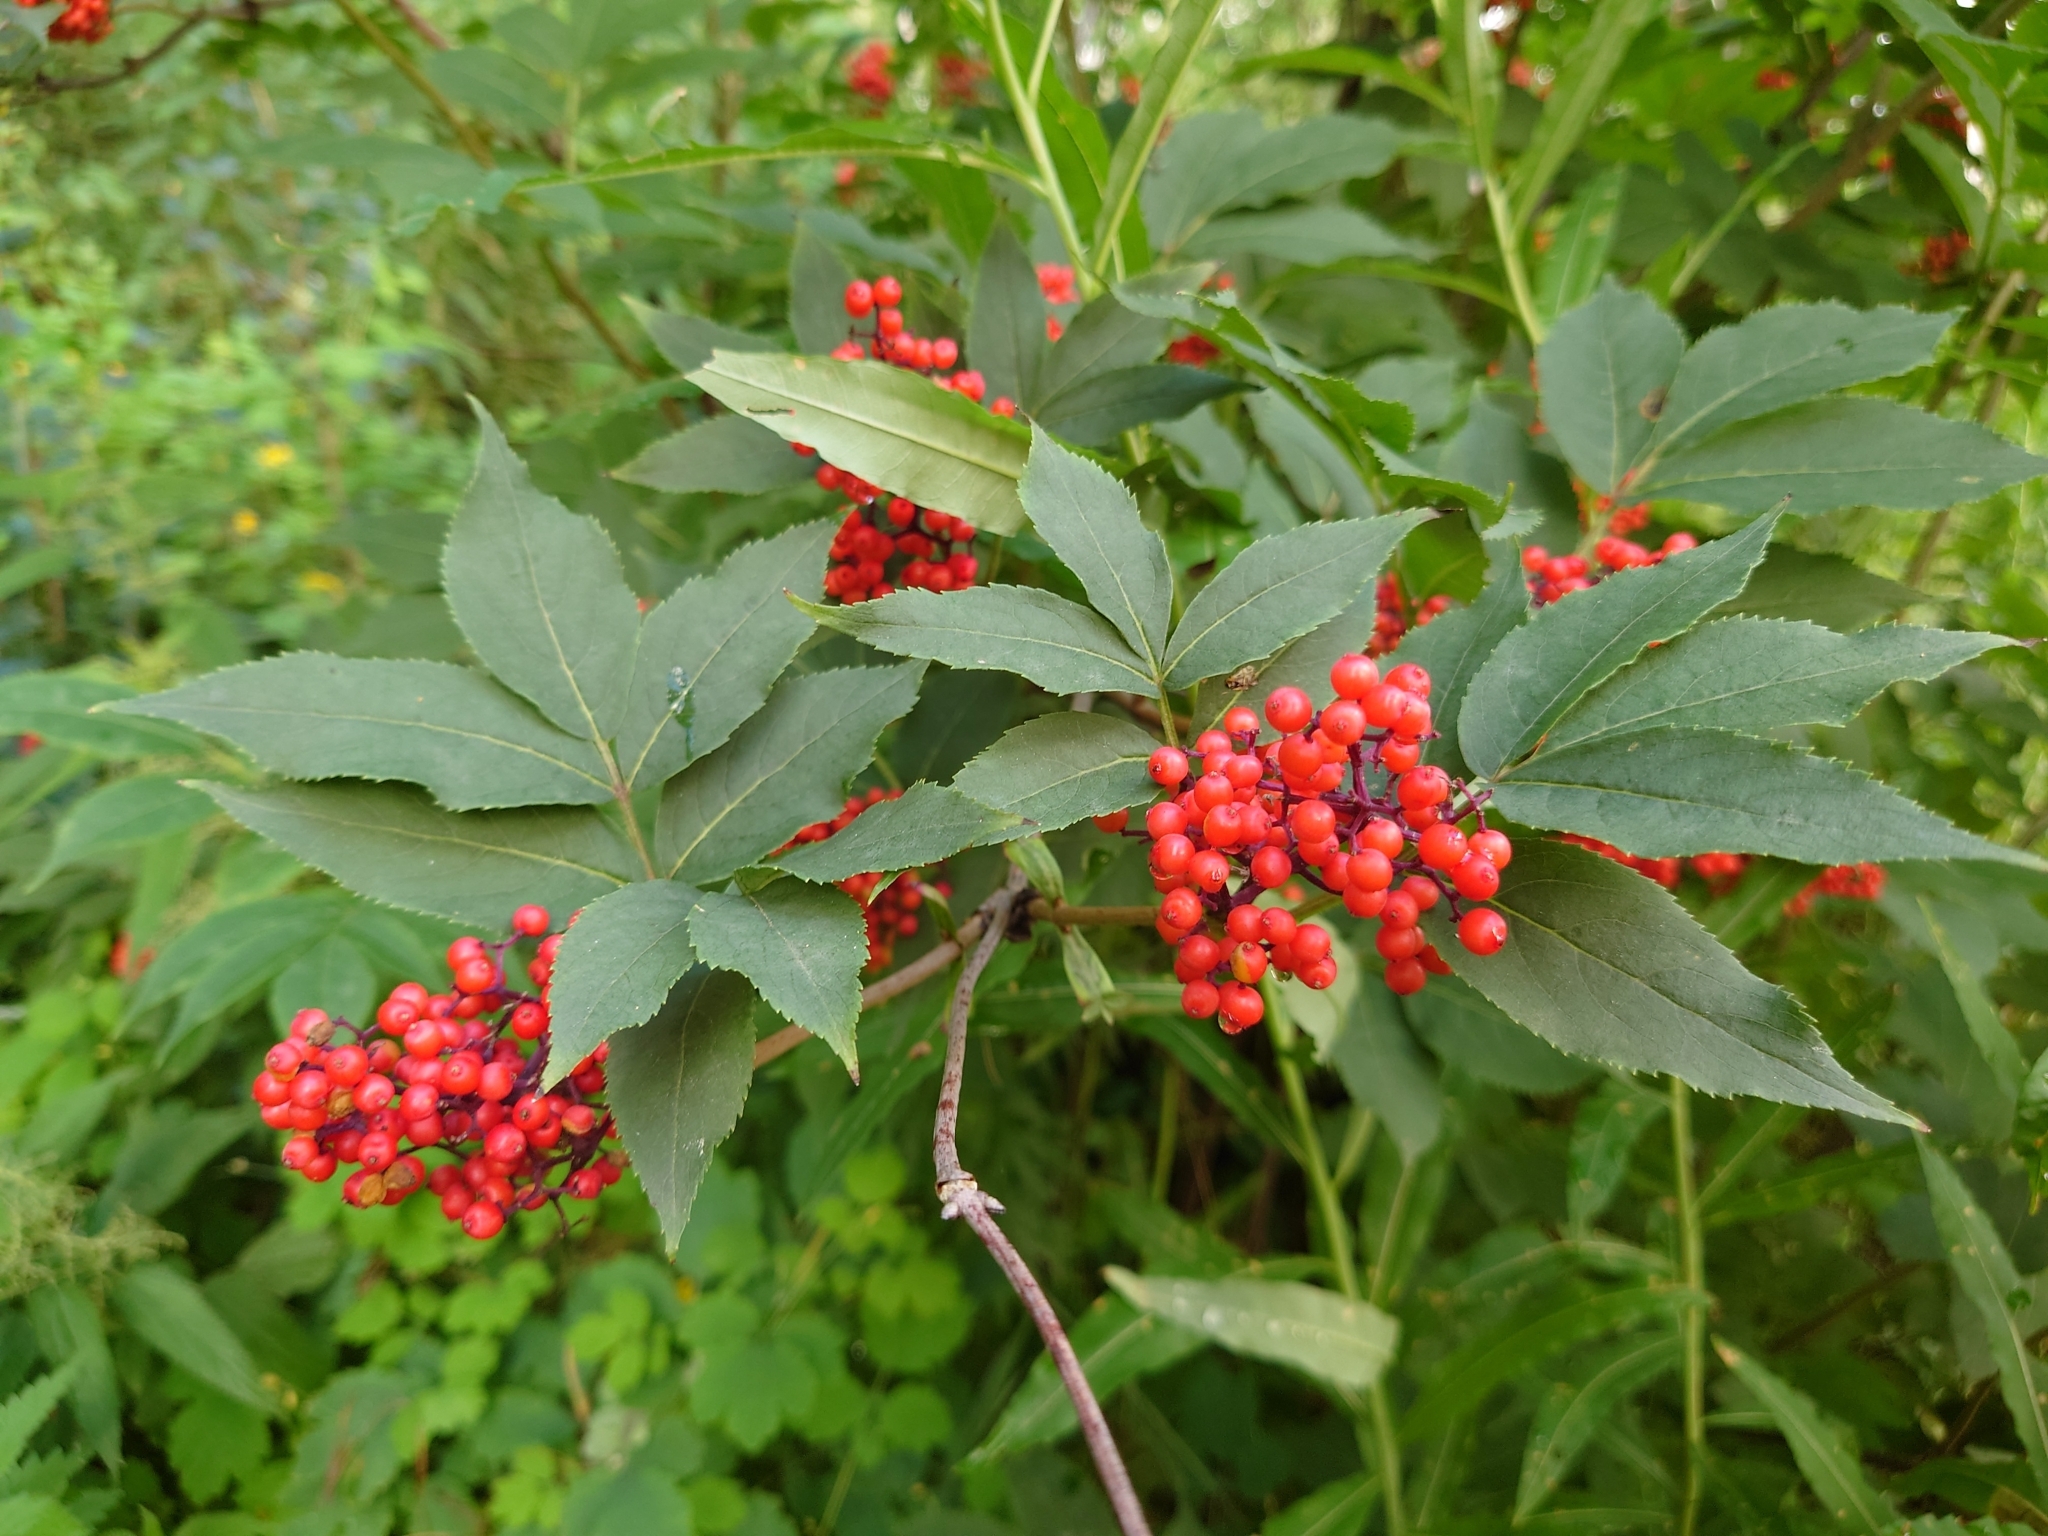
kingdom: Plantae
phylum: Tracheophyta
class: Magnoliopsida
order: Dipsacales
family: Viburnaceae
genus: Sambucus
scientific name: Sambucus racemosa
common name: Red-berried elder
